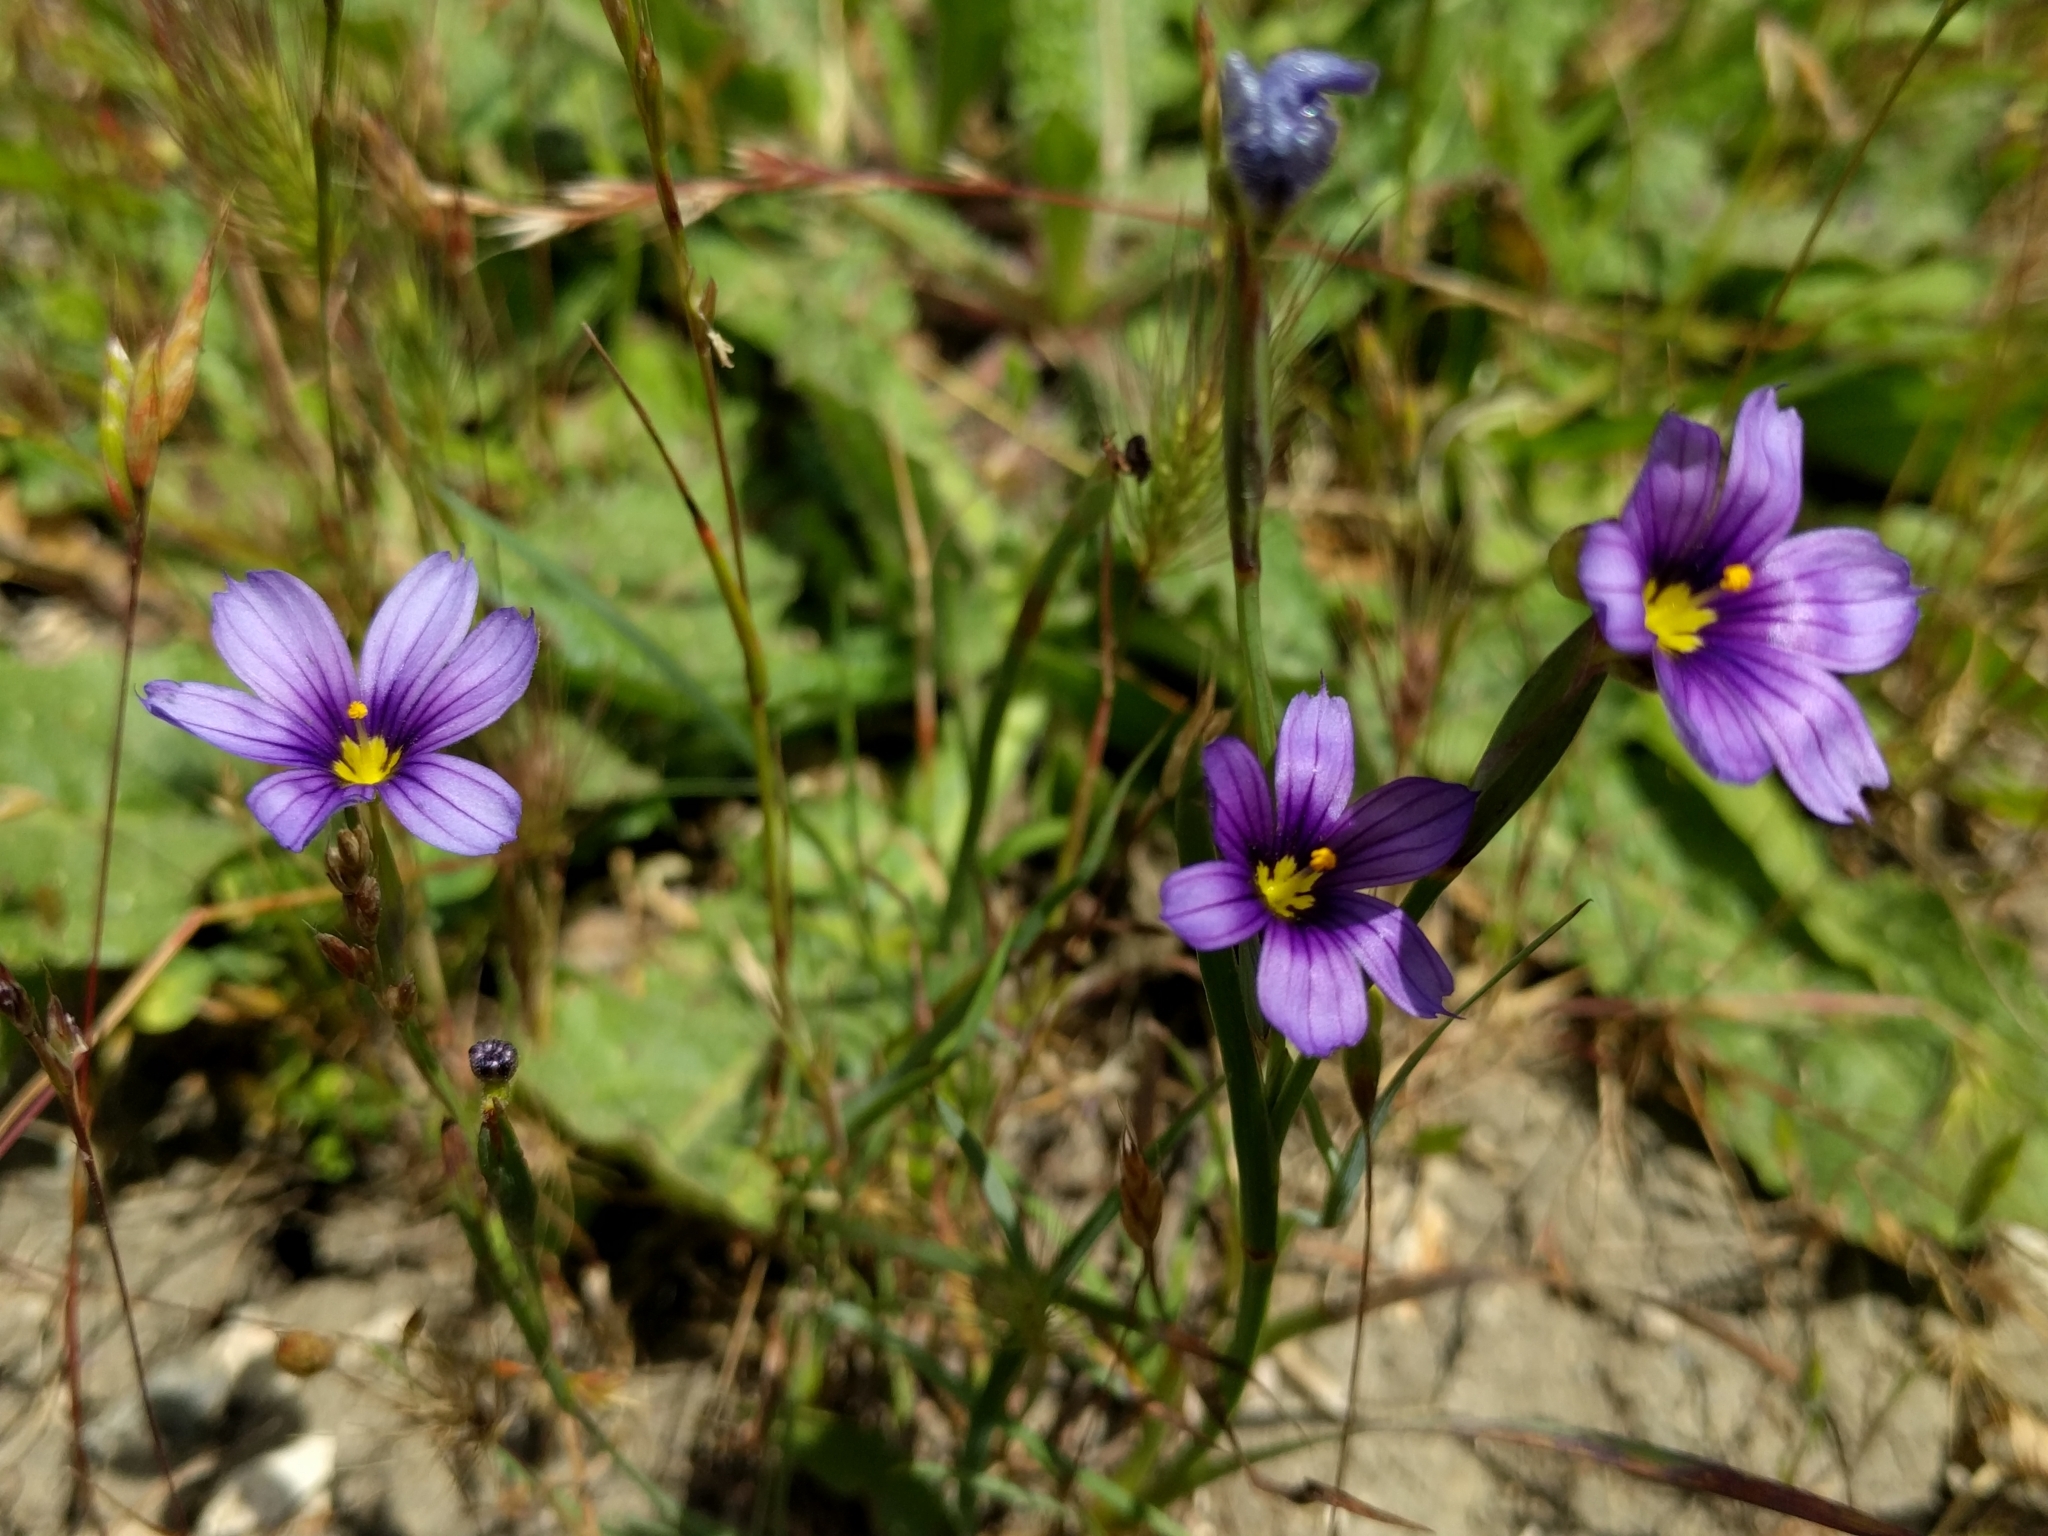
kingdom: Plantae
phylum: Tracheophyta
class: Liliopsida
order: Asparagales
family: Iridaceae
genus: Sisyrinchium
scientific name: Sisyrinchium bellum
